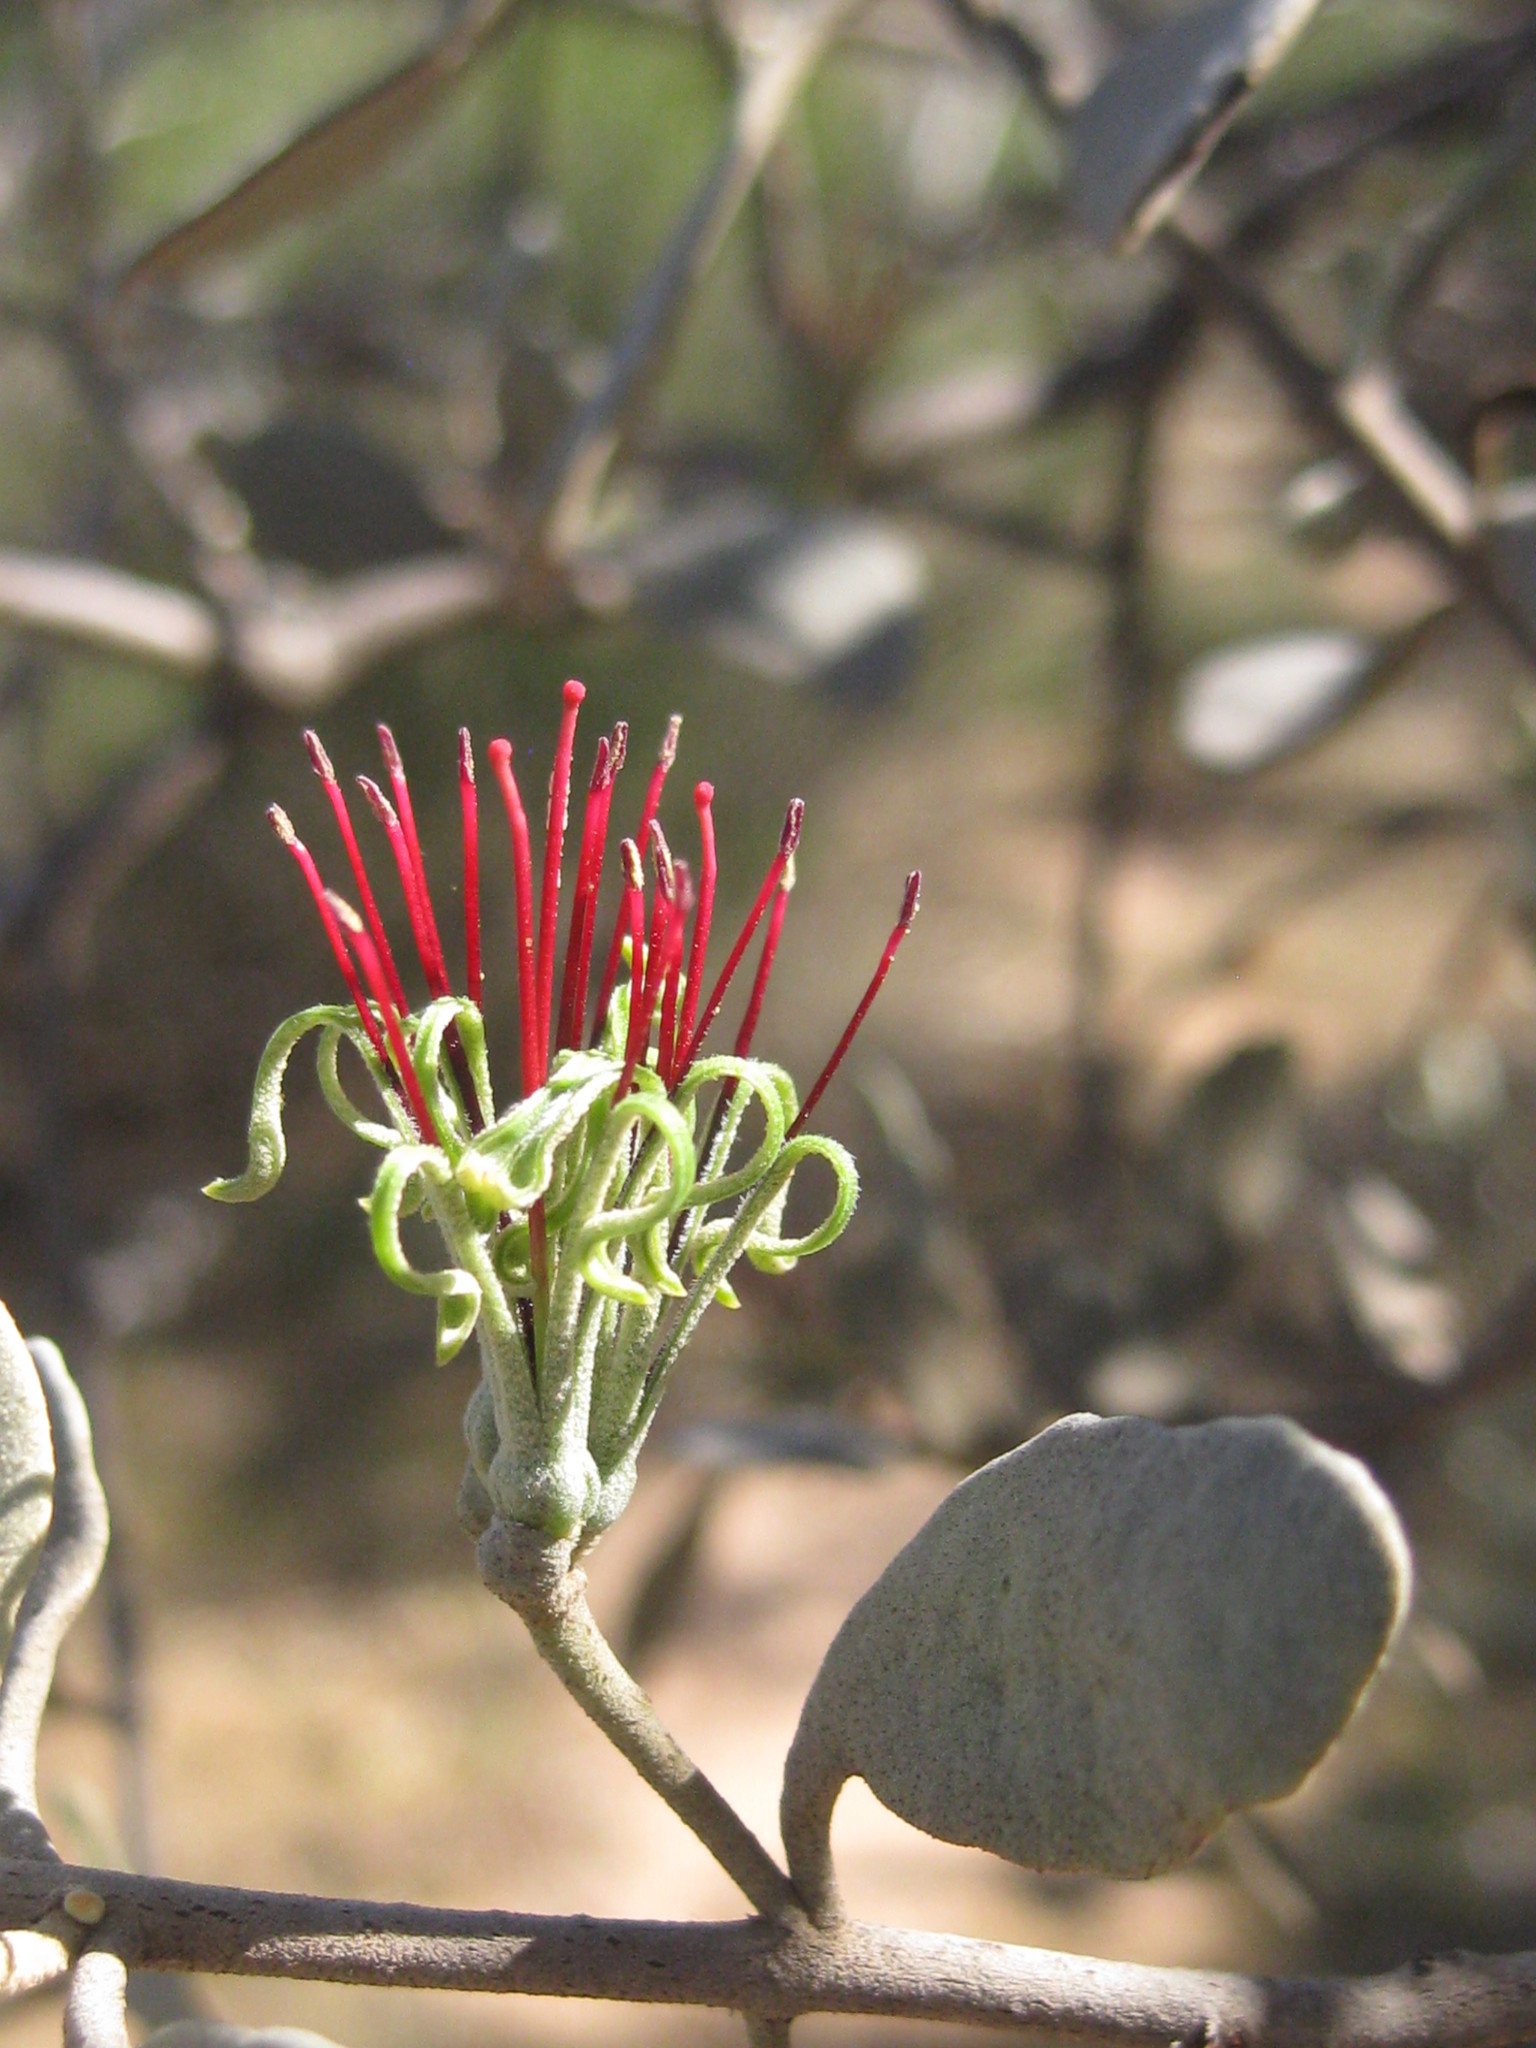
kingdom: Plantae
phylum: Tracheophyta
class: Magnoliopsida
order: Santalales
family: Loranthaceae
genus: Amyema
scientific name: Amyema fitzgeraldii
